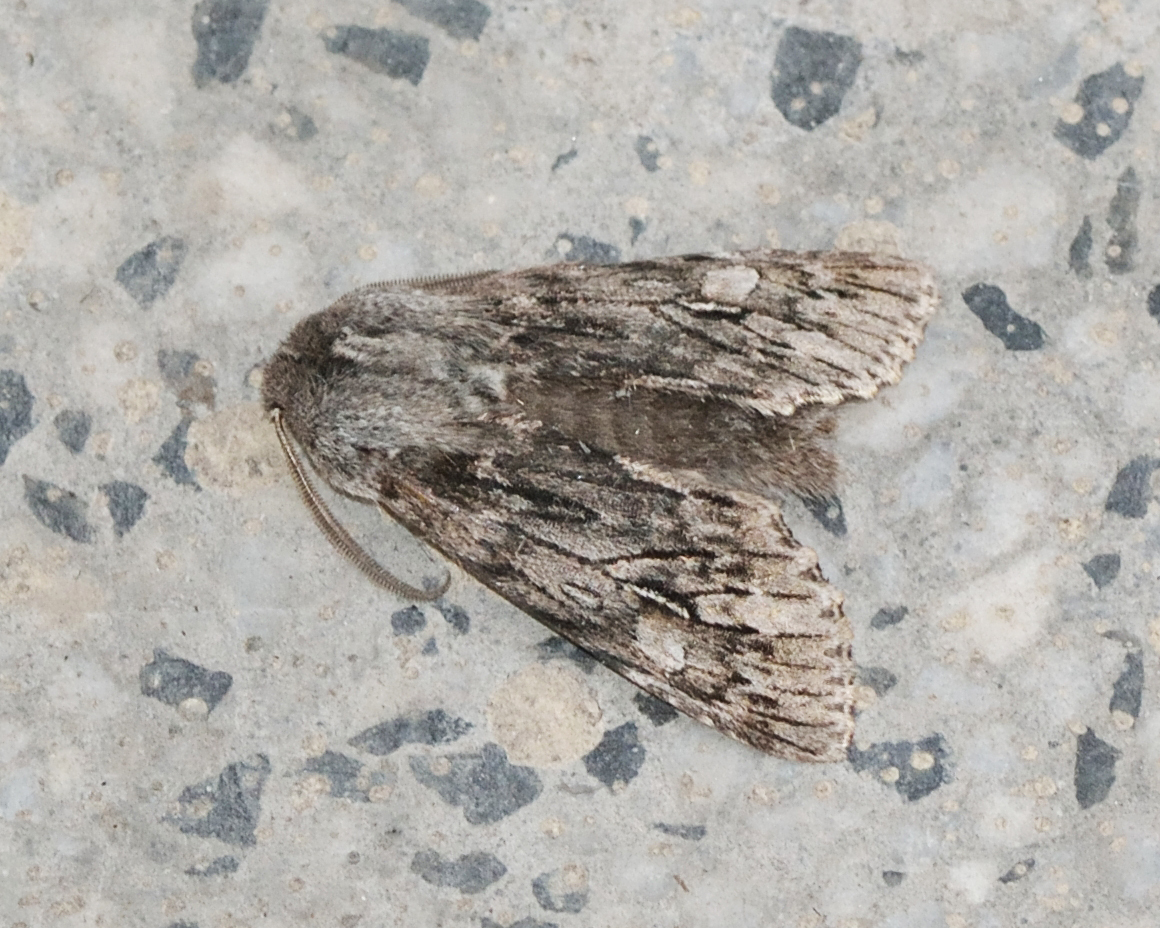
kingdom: Animalia
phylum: Arthropoda
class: Insecta
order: Lepidoptera
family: Noctuidae
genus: Brachionycha
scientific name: Brachionycha nubeculosa
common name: Rannoch sprawler
